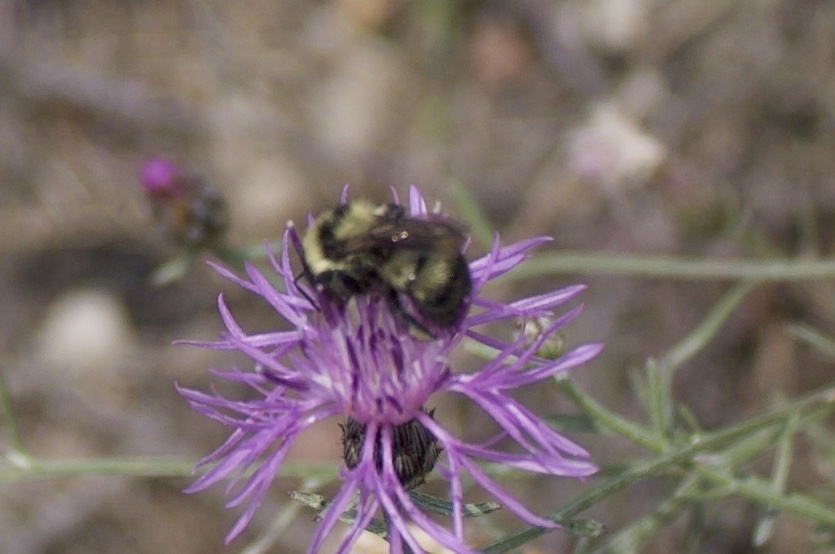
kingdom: Animalia
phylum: Arthropoda
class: Insecta
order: Hymenoptera
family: Apidae
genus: Bombus
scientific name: Bombus rufocinctus
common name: Red-belted bumble bee
